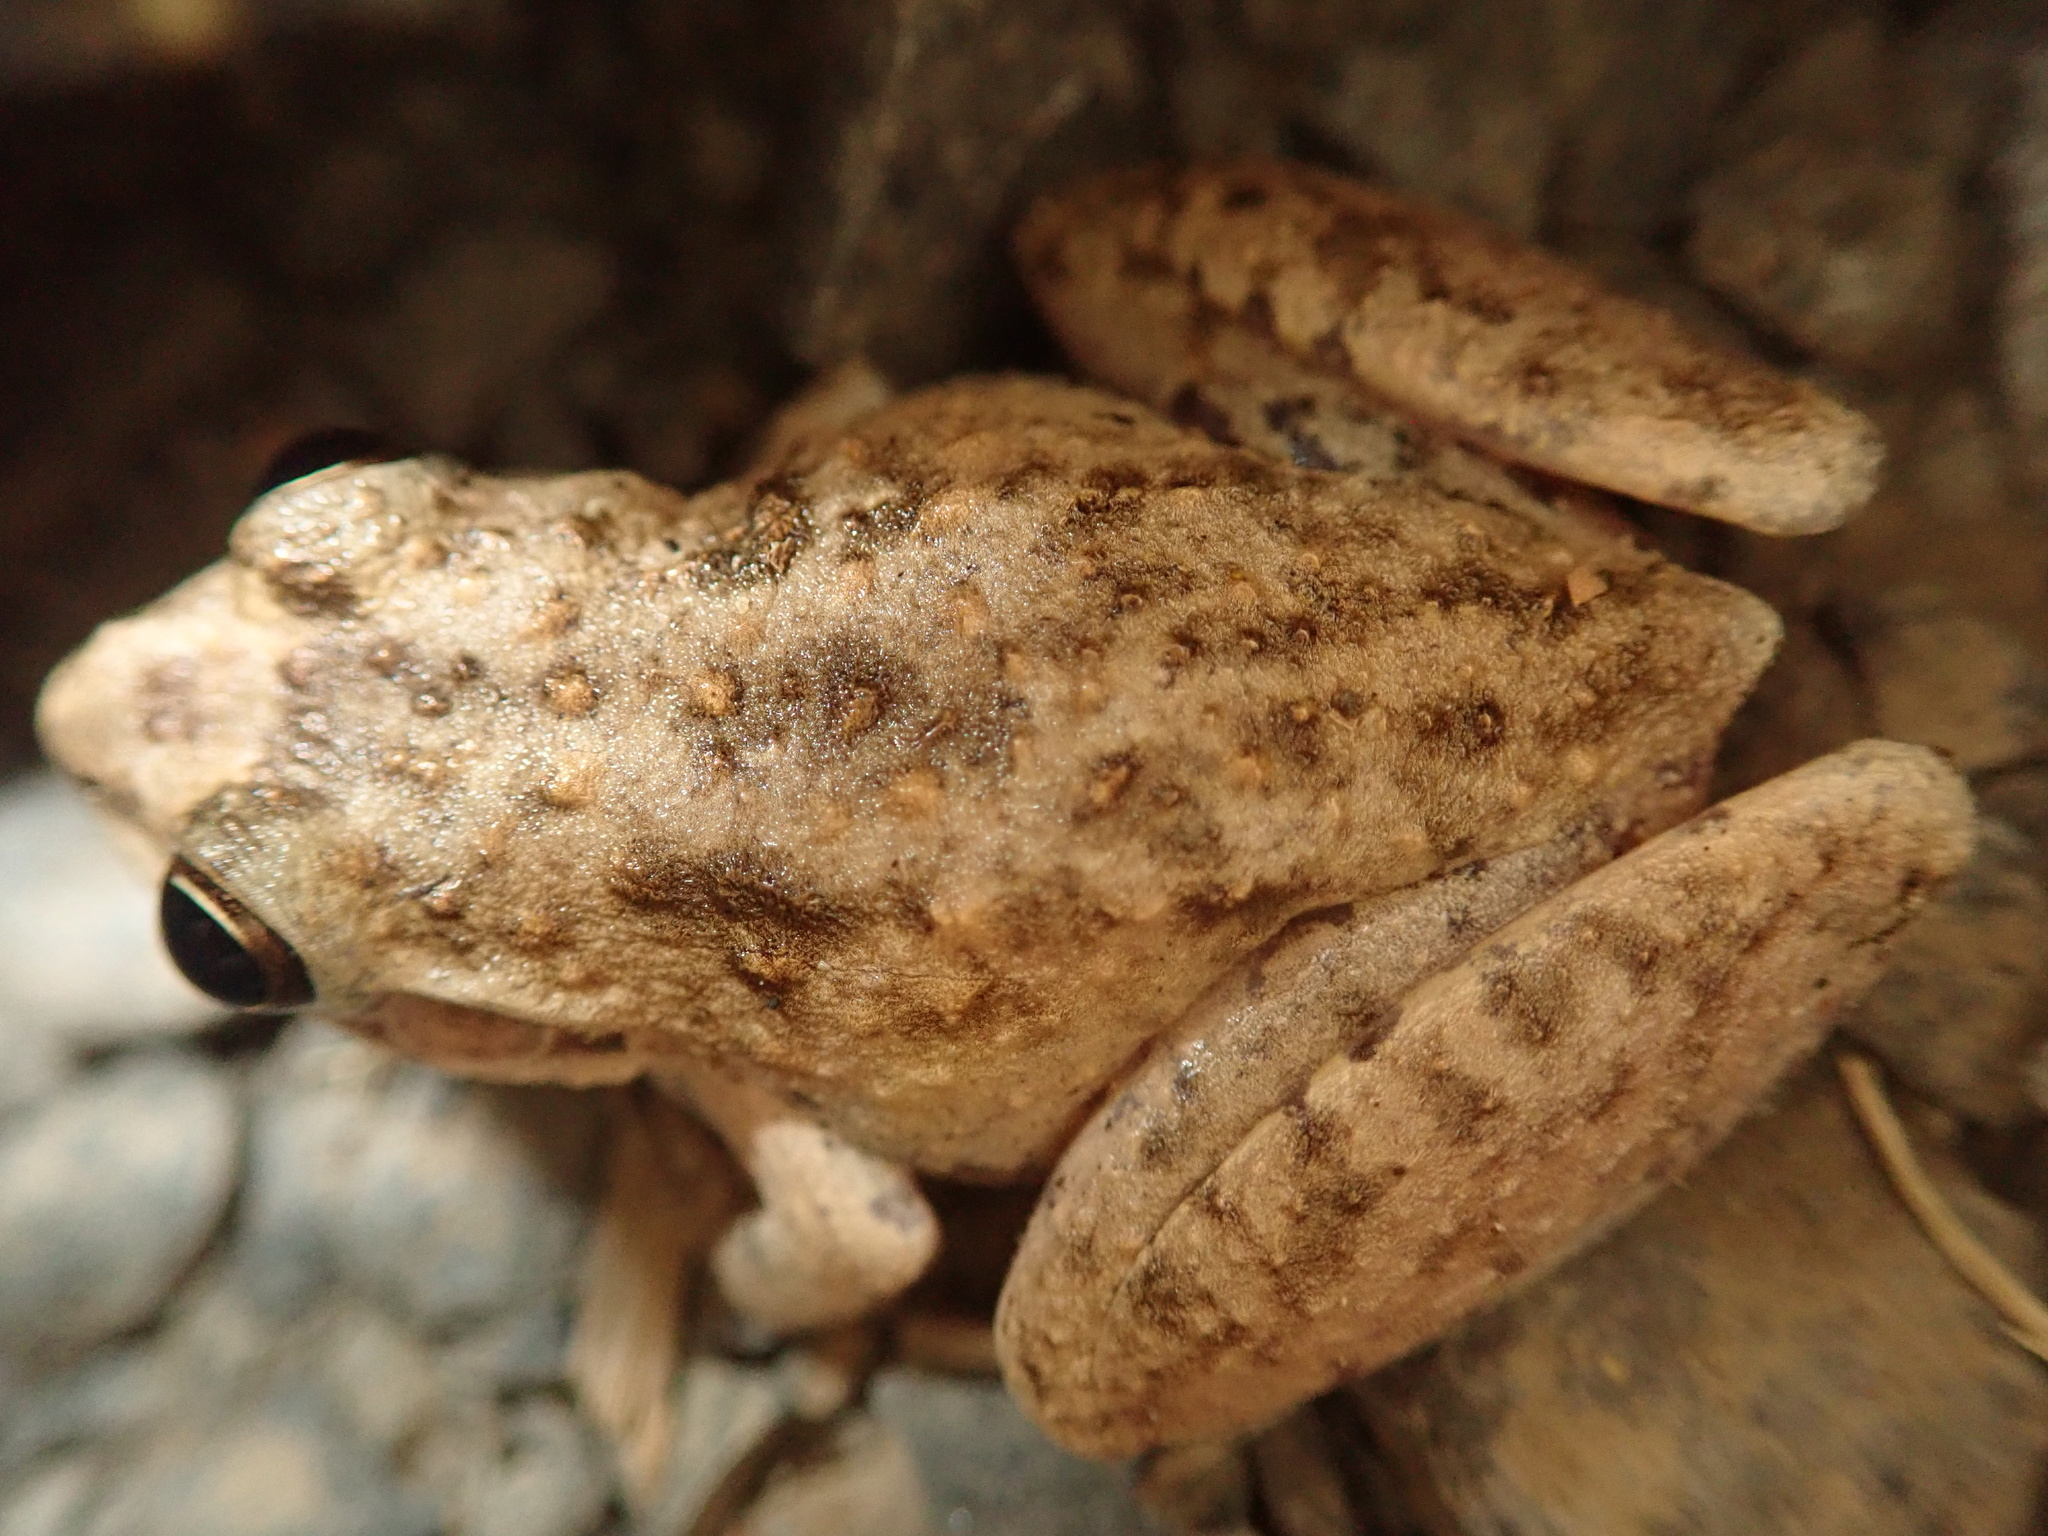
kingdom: Animalia
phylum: Chordata
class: Amphibia
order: Anura
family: Pelodryadidae
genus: Litoria
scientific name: Litoria inermis
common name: Bumpy rocket frog
